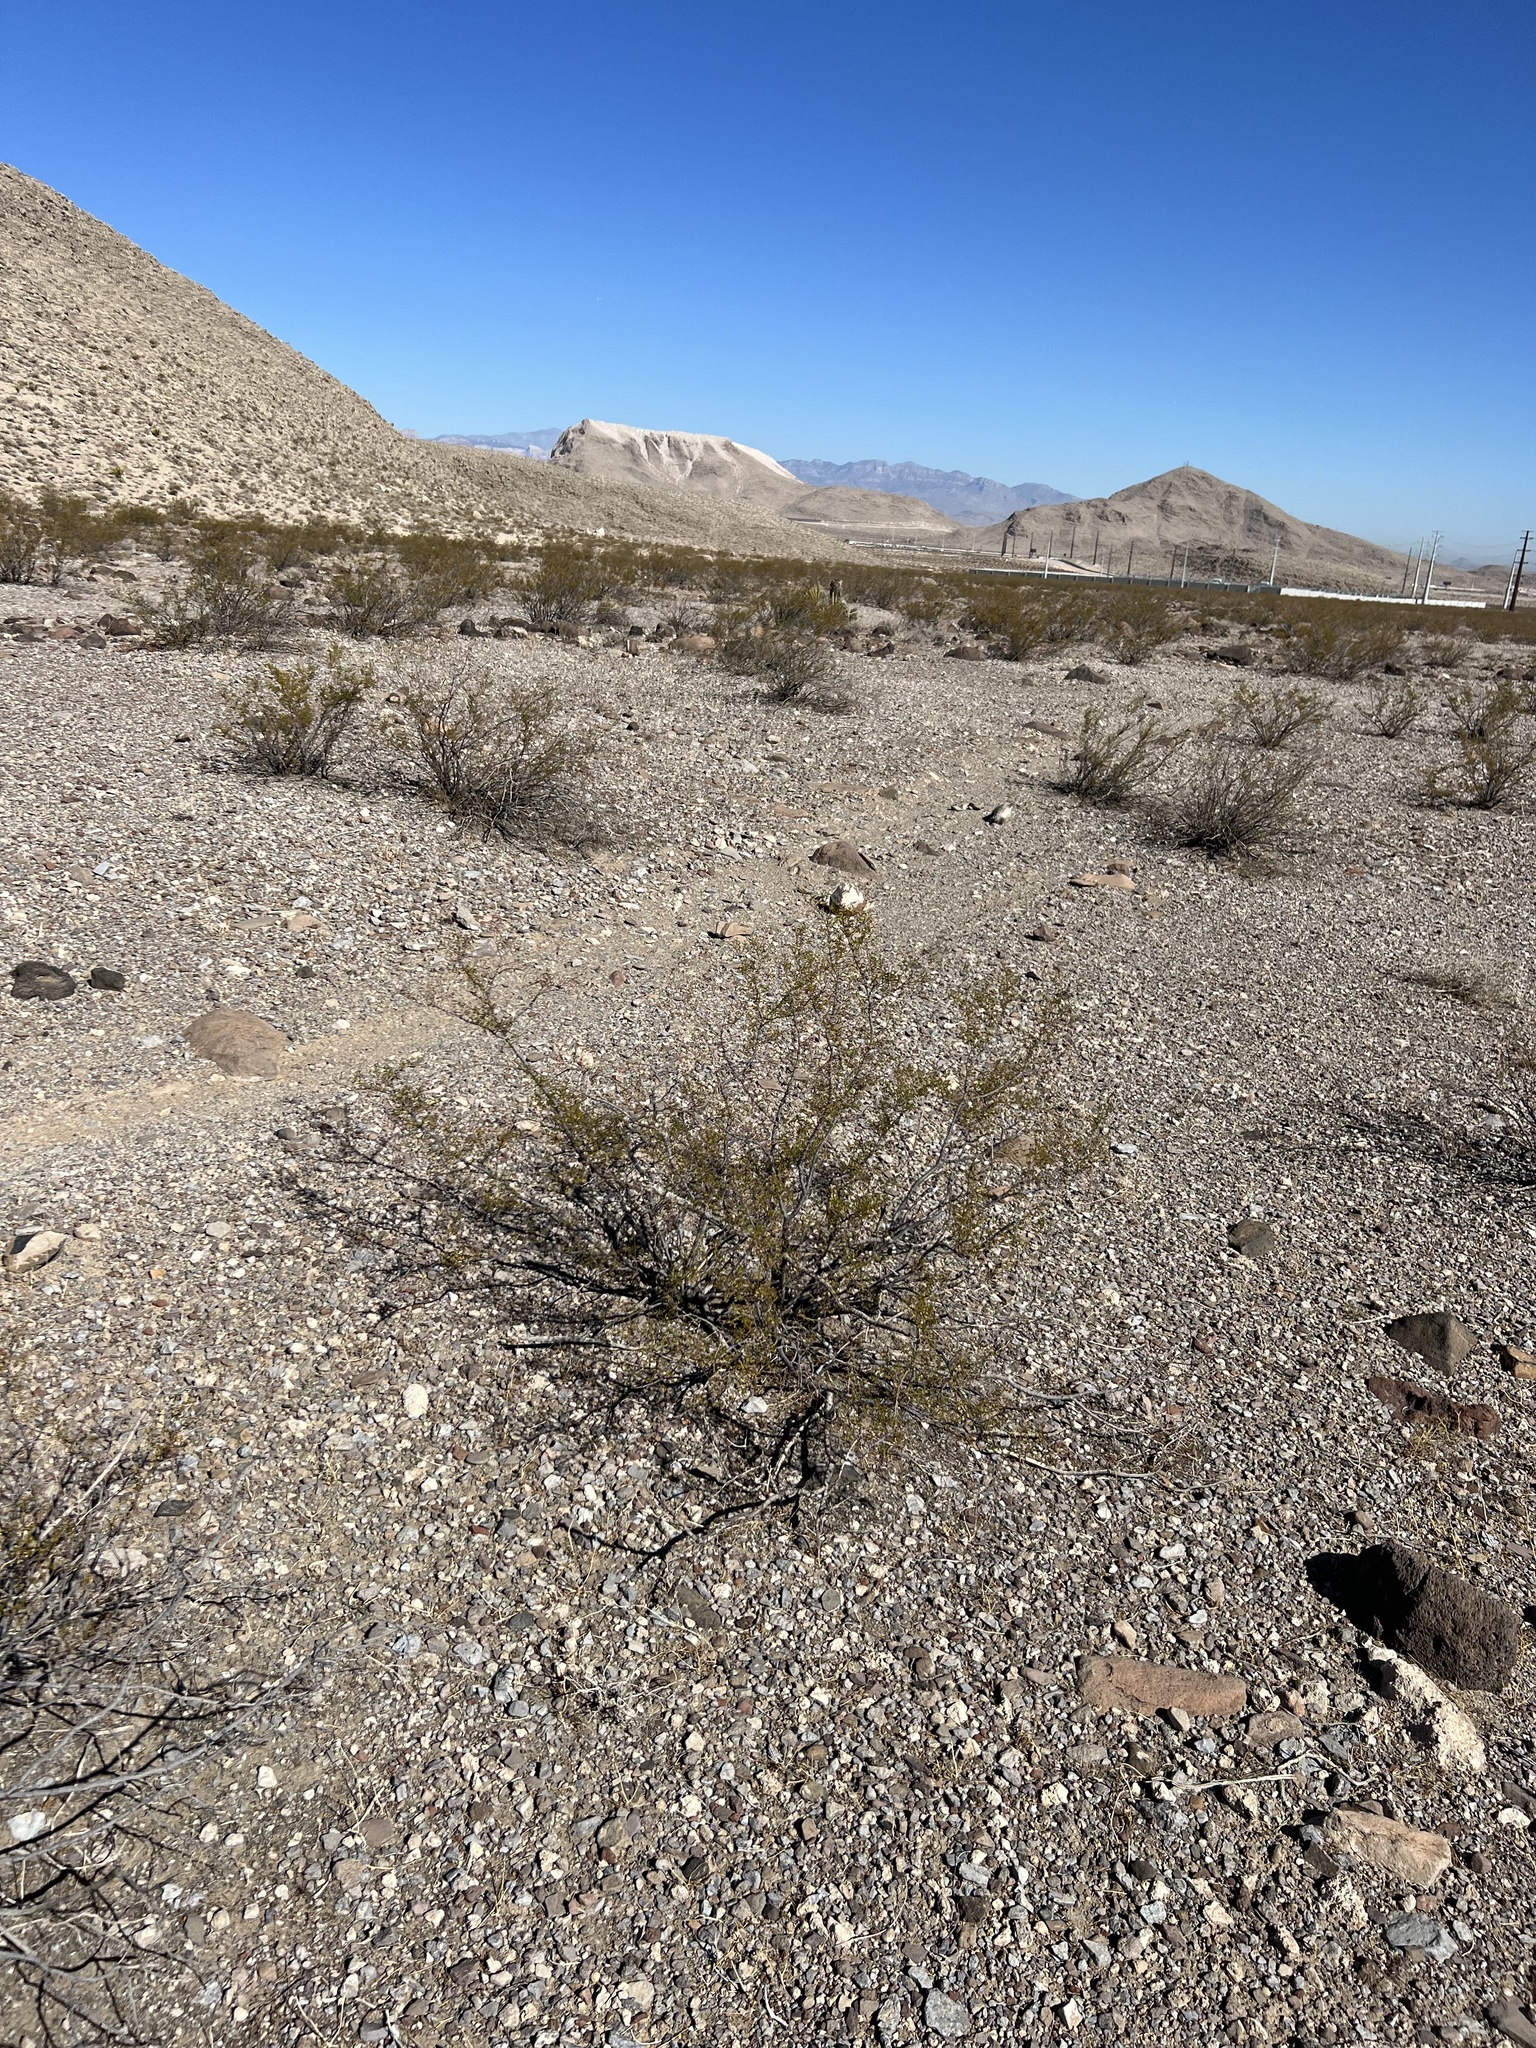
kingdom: Plantae
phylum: Tracheophyta
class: Magnoliopsida
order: Zygophyllales
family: Zygophyllaceae
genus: Larrea
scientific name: Larrea tridentata
